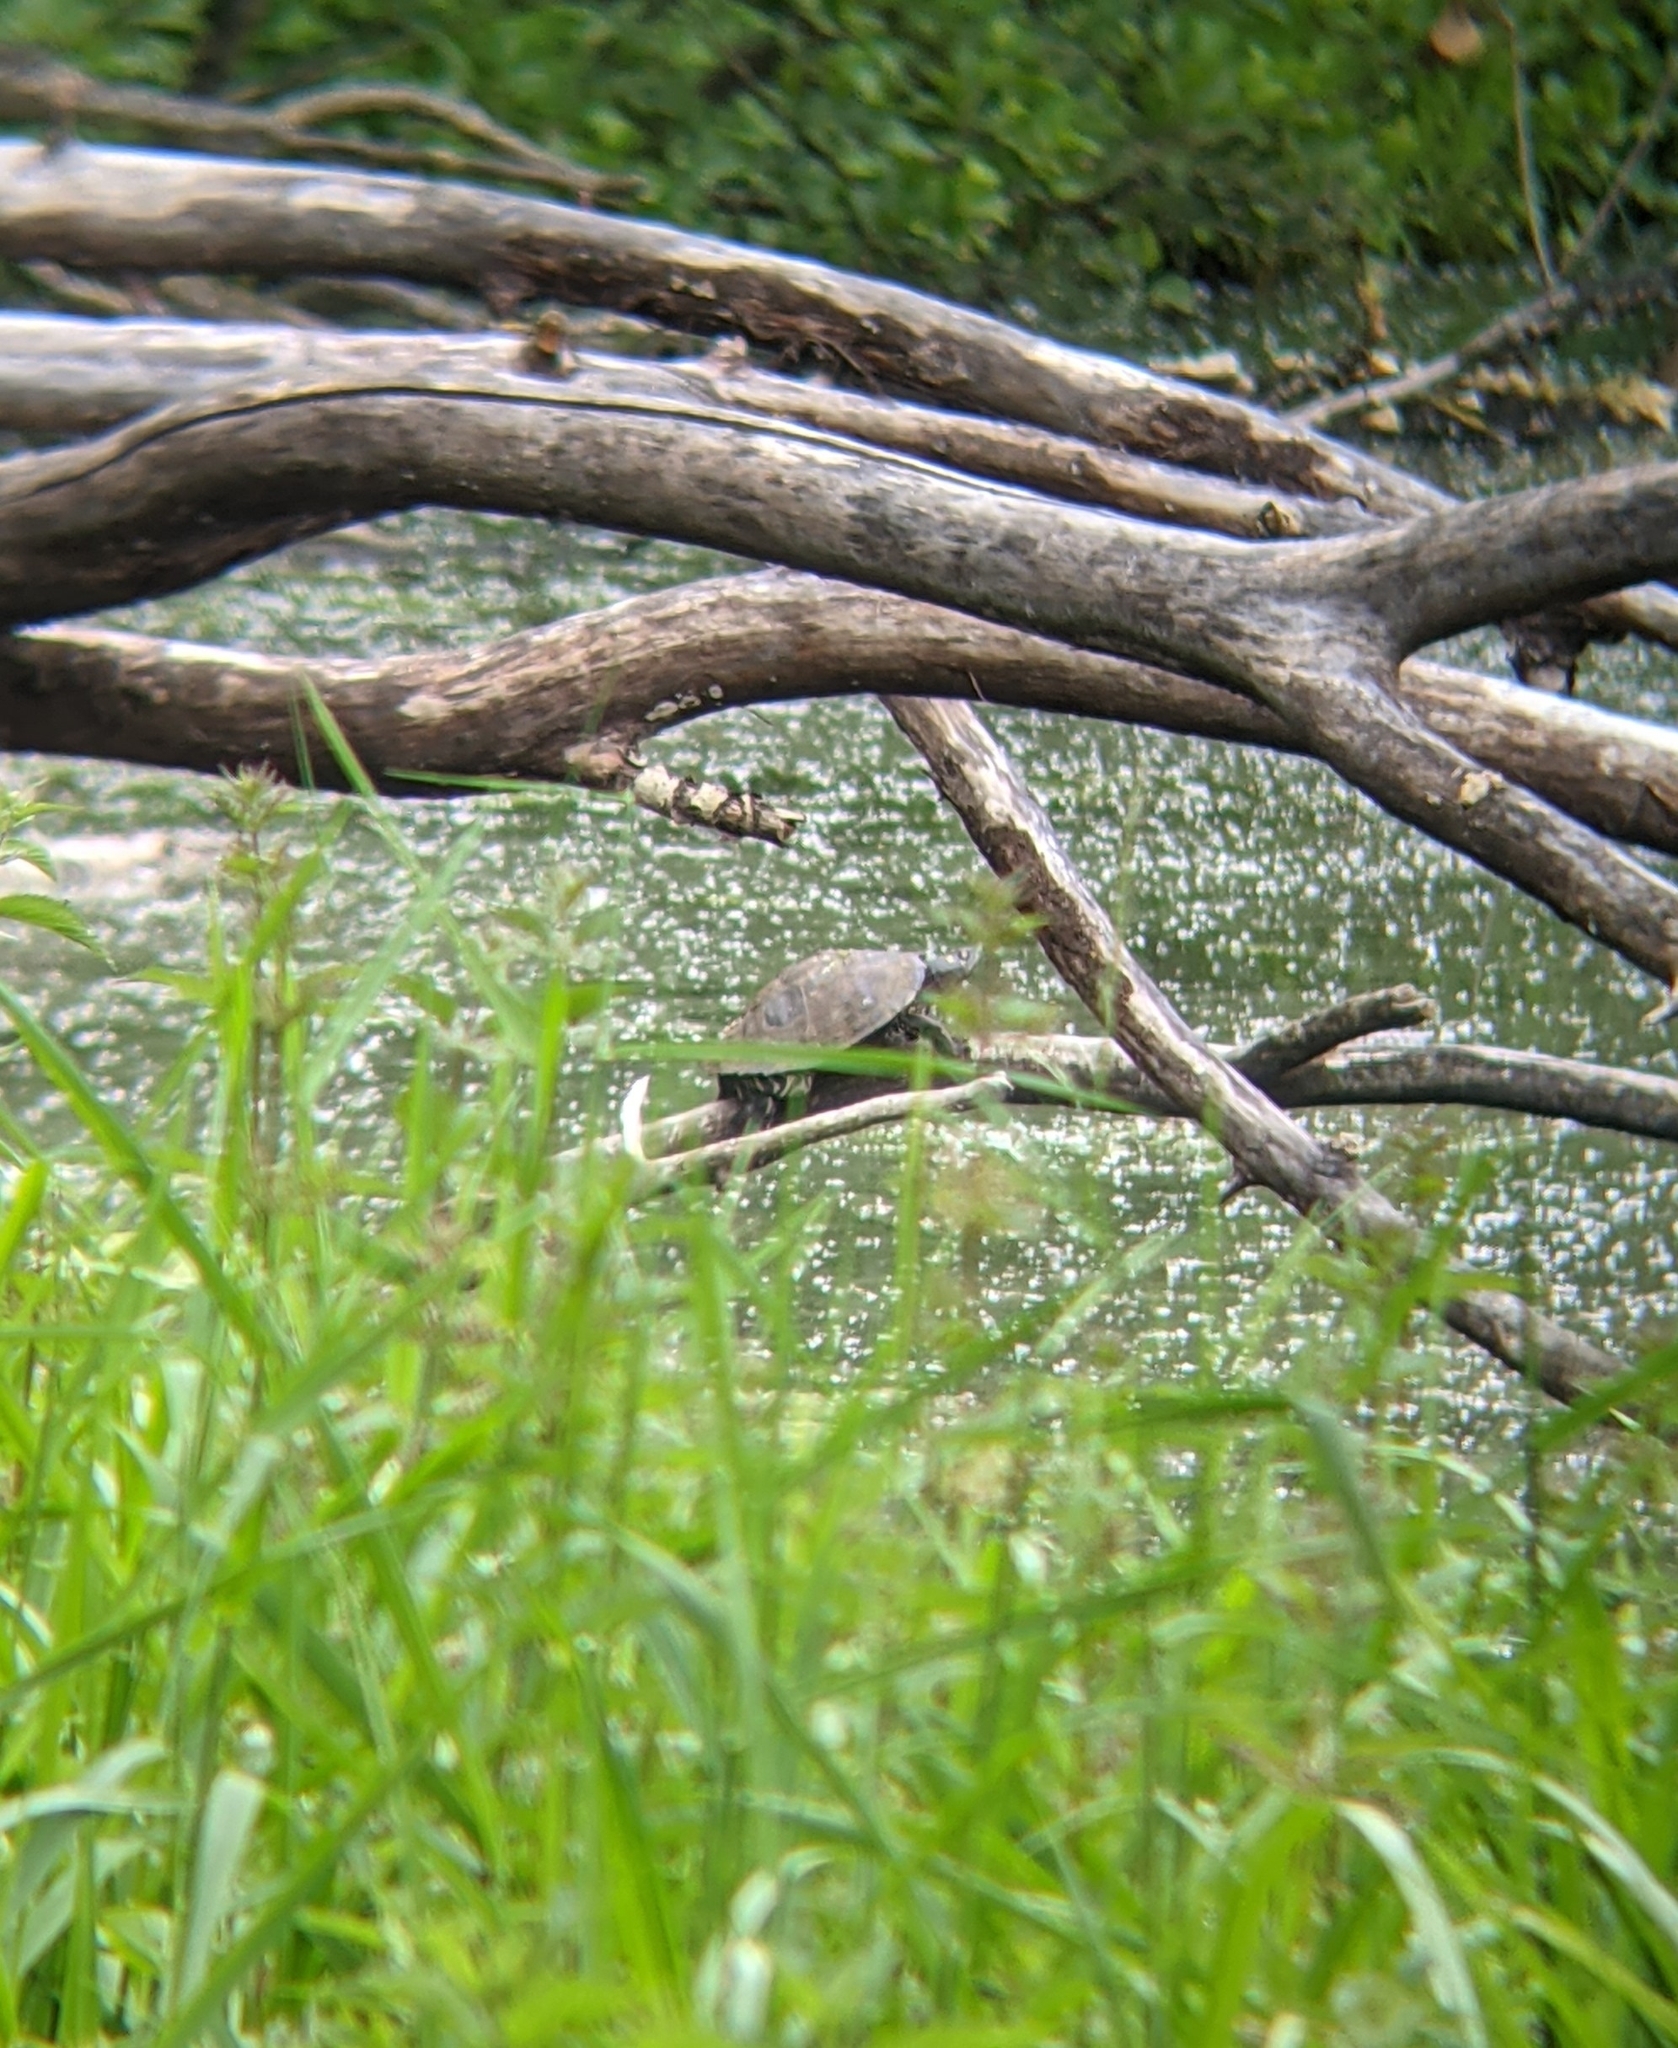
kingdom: Animalia
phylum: Chordata
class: Testudines
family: Emydidae
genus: Graptemys
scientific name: Graptemys ouachitensis
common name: Ouachita map turtle
